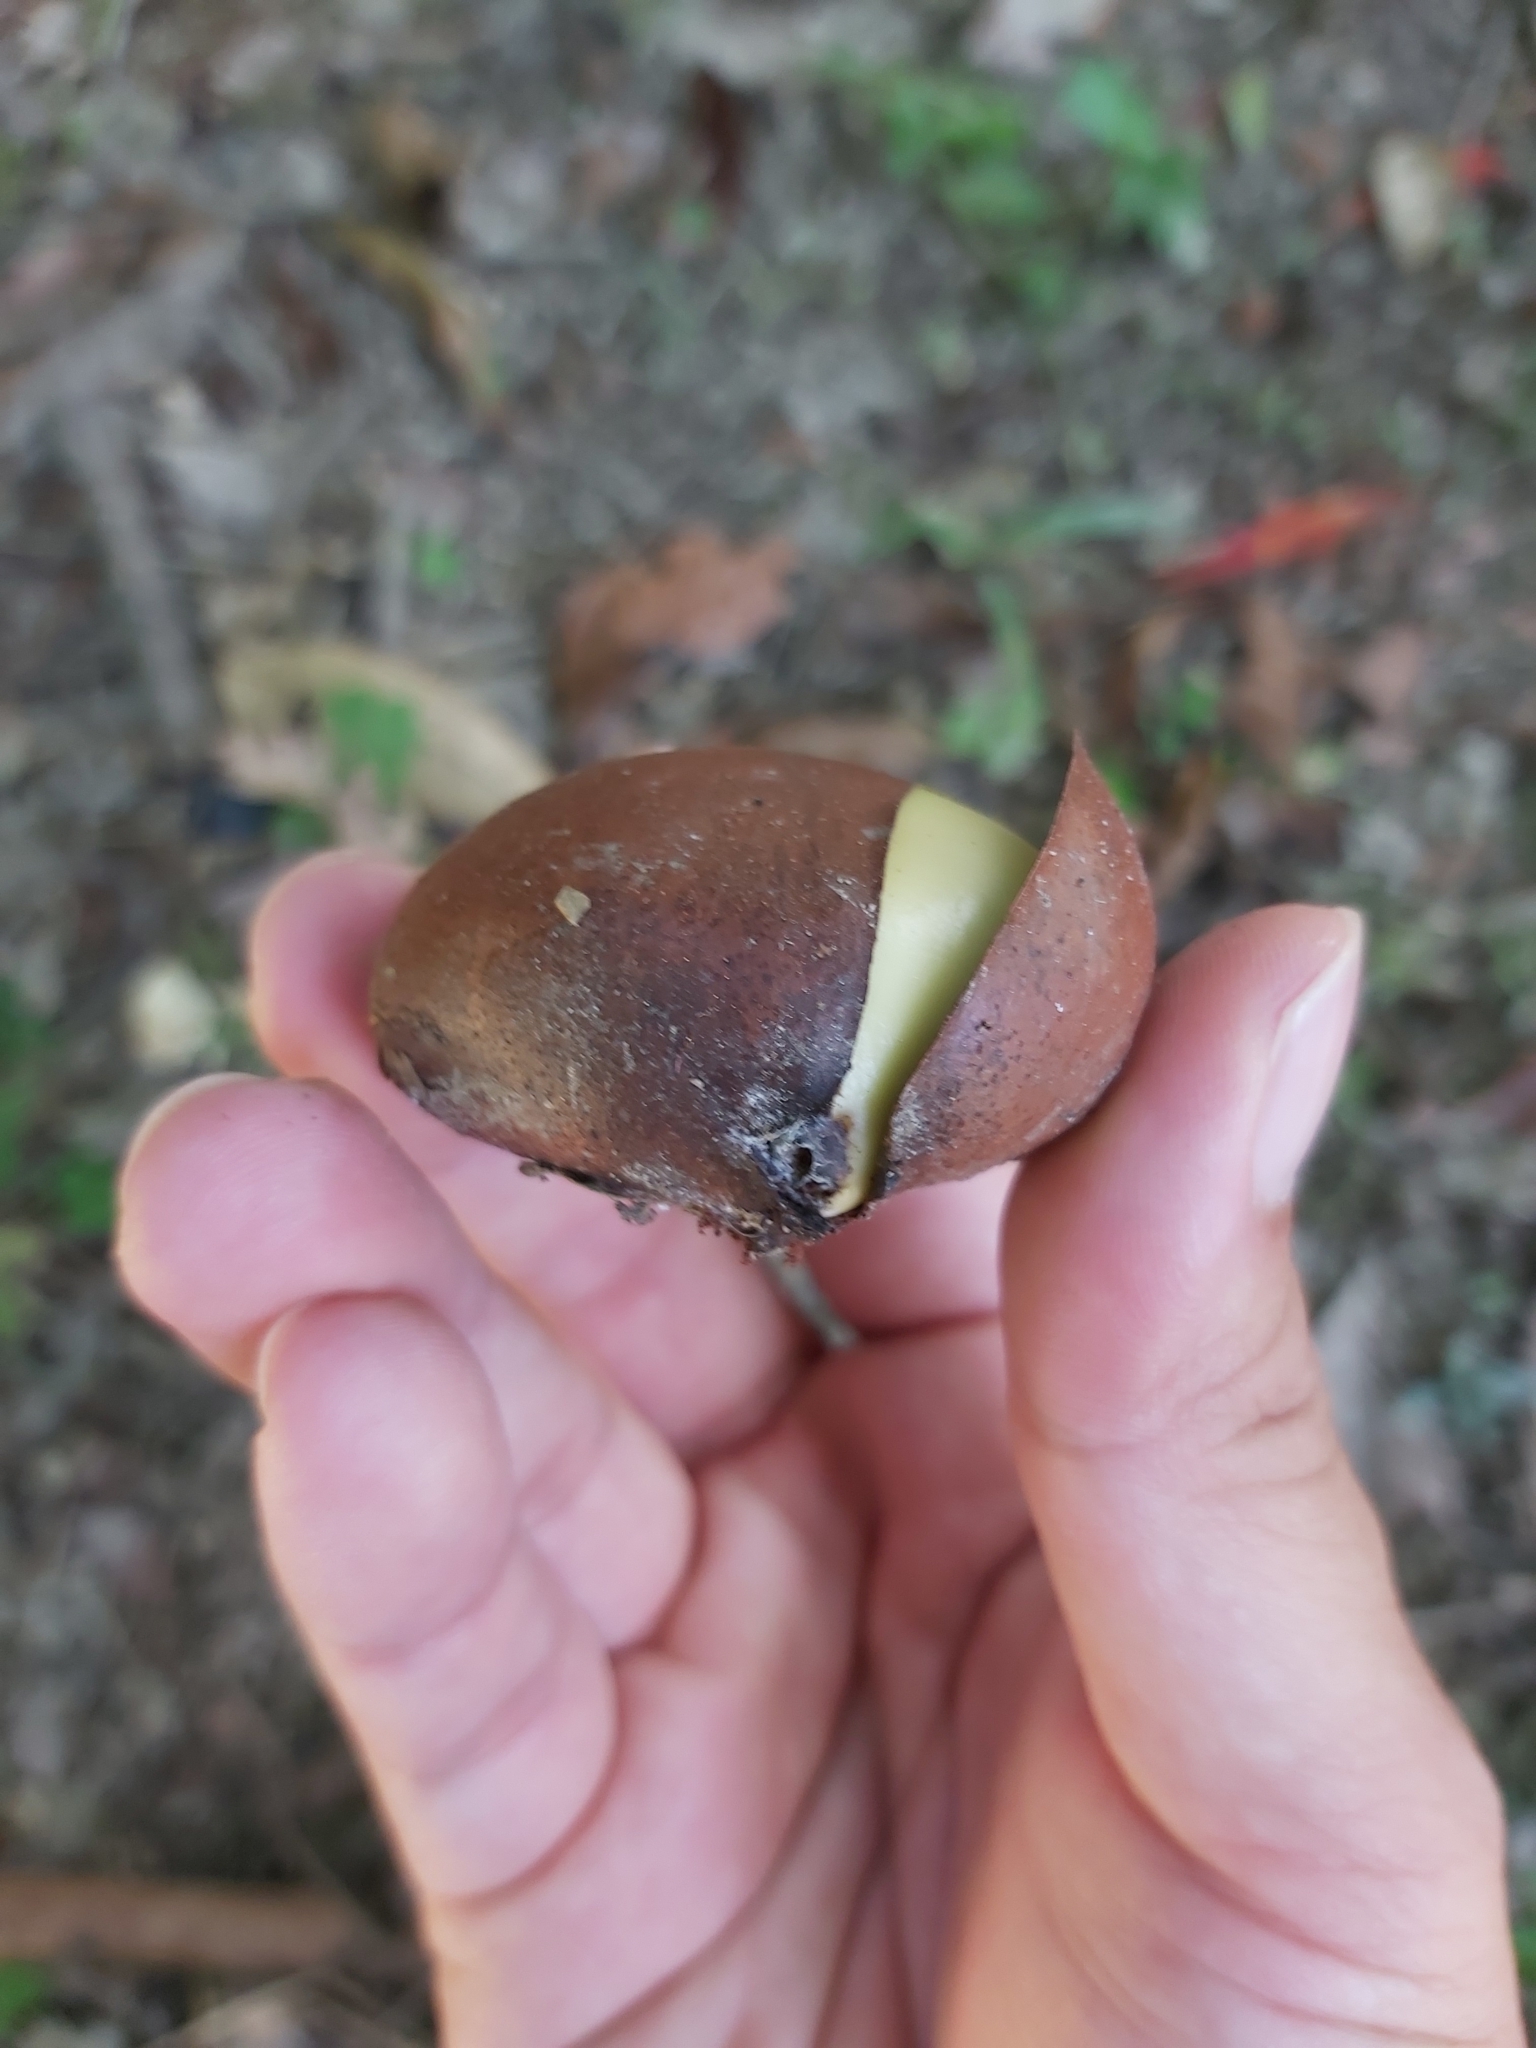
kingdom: Plantae
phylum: Tracheophyta
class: Magnoliopsida
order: Fabales
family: Fabaceae
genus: Castanospermum
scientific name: Castanospermum australe
